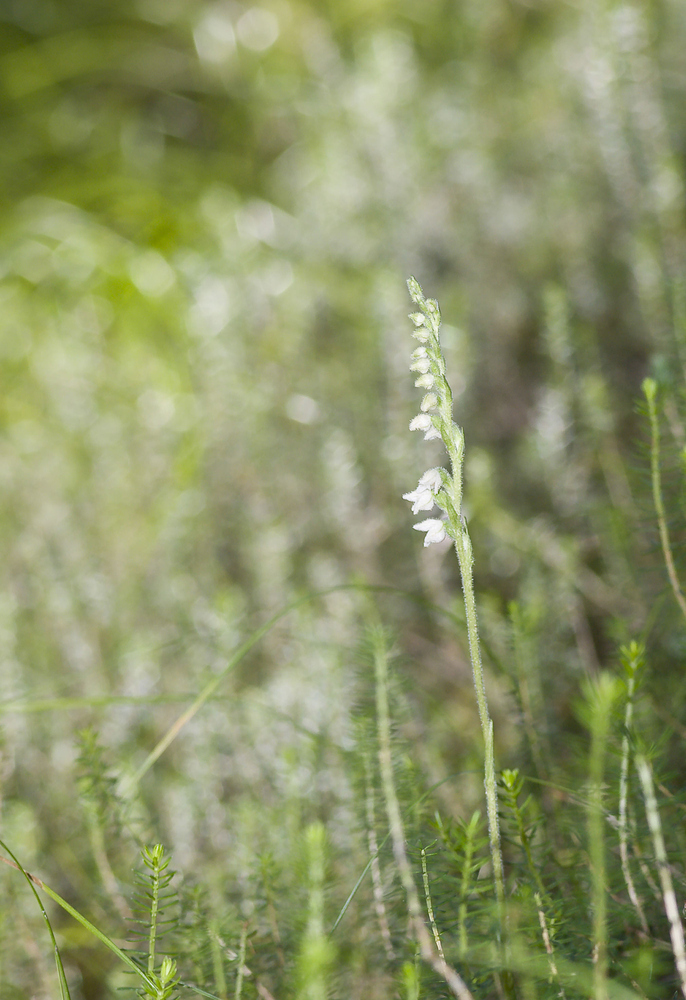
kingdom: Plantae
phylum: Tracheophyta
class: Liliopsida
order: Asparagales
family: Orchidaceae
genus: Goodyera
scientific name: Goodyera repens
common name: Creeping lady's-tresses
